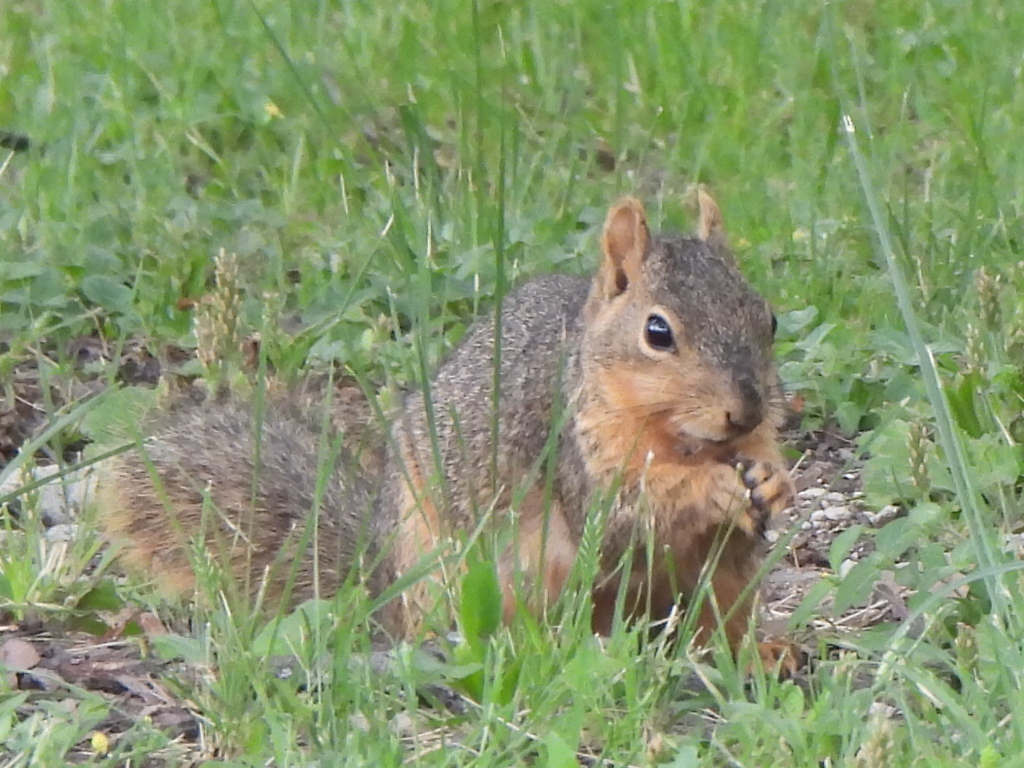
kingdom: Animalia
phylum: Chordata
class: Mammalia
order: Rodentia
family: Sciuridae
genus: Sciurus
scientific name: Sciurus niger
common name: Fox squirrel
